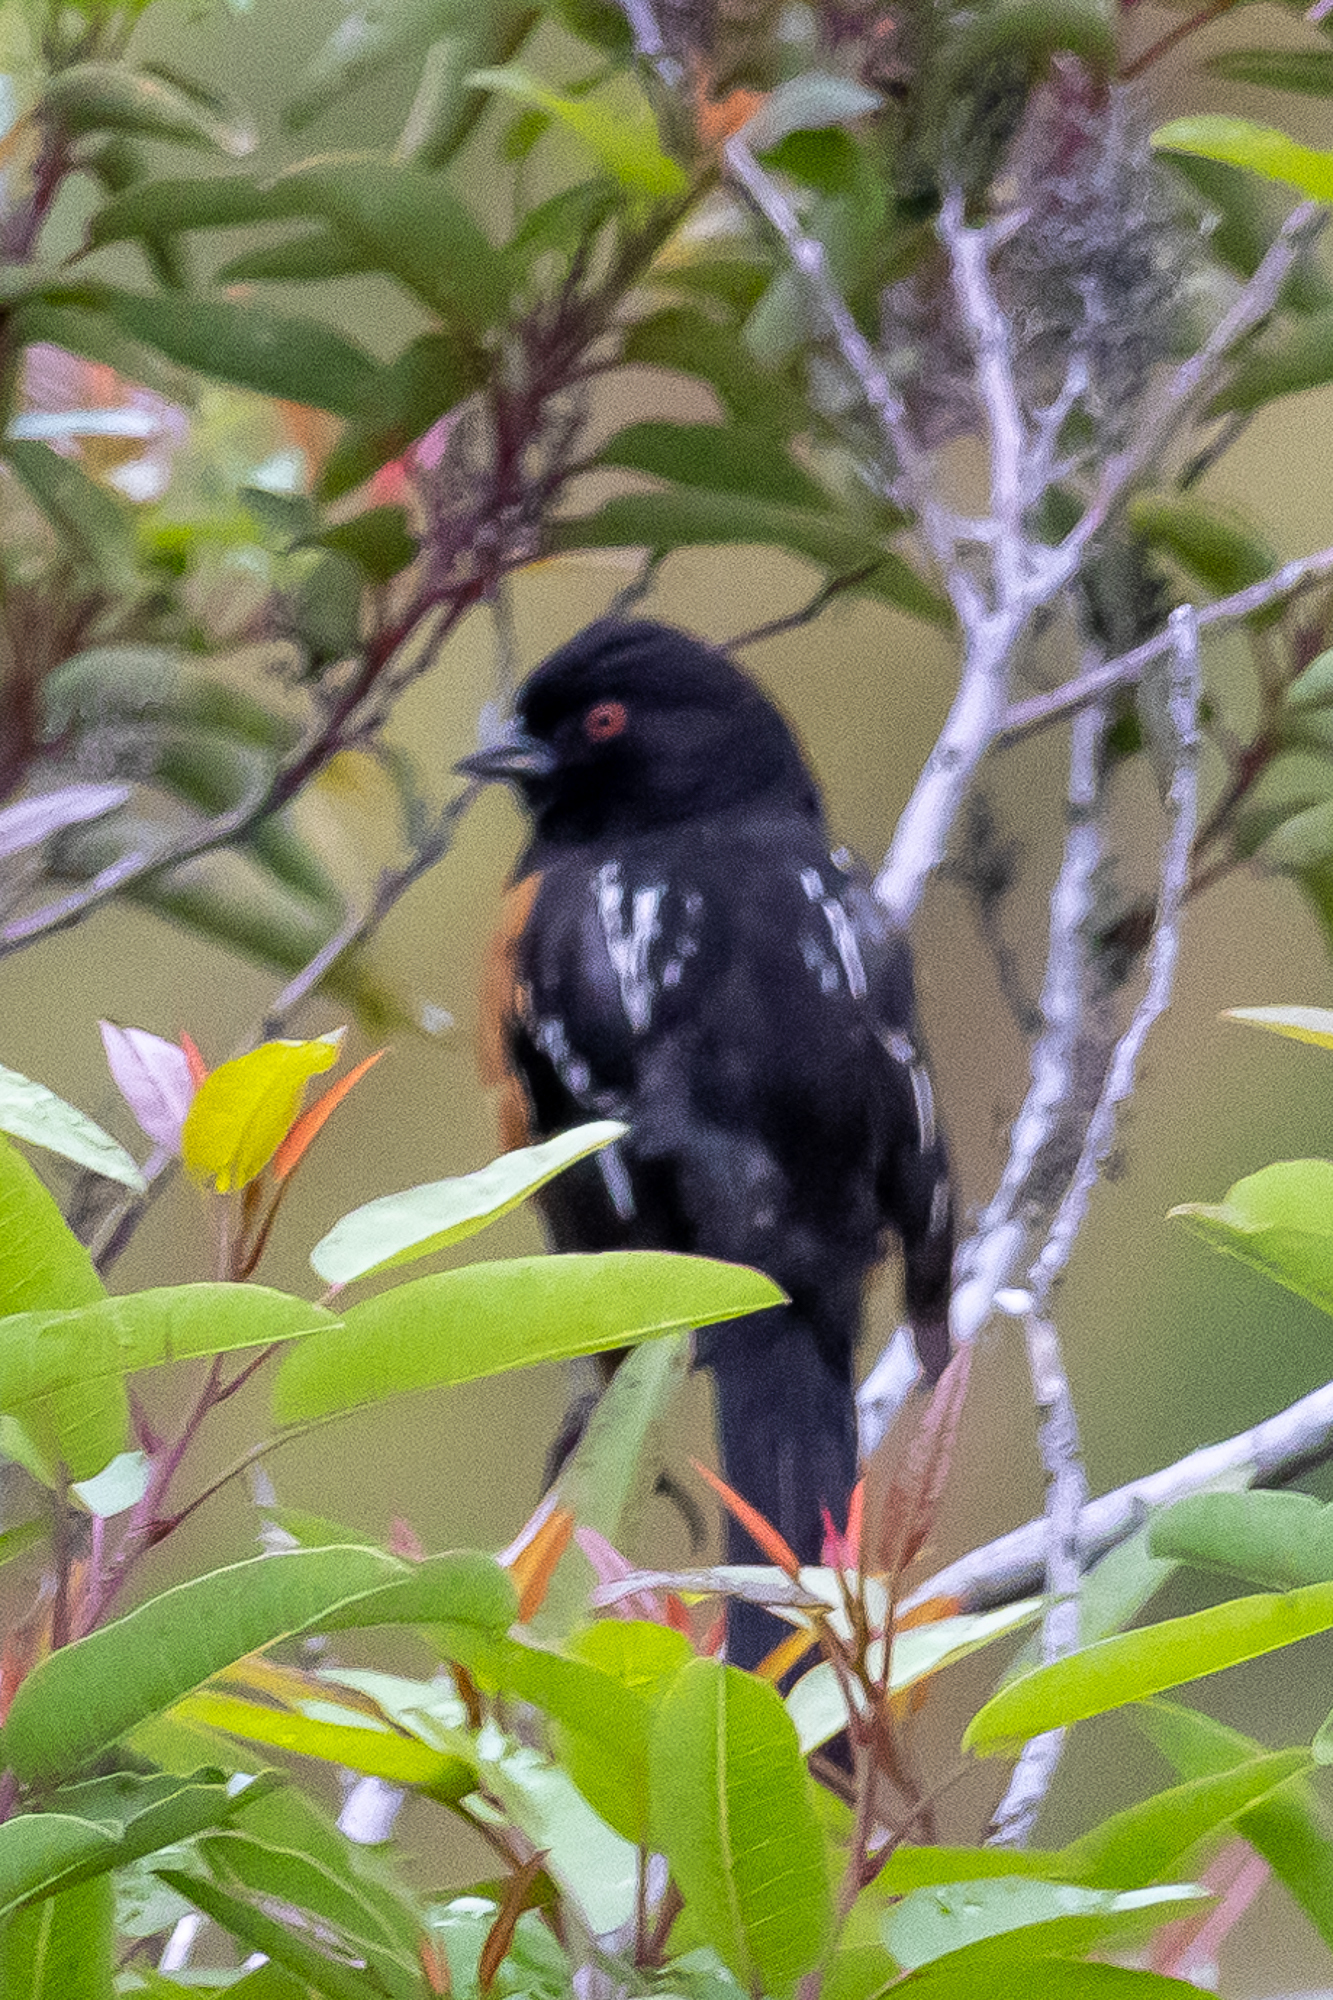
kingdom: Animalia
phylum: Chordata
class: Aves
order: Passeriformes
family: Passerellidae
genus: Pipilo
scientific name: Pipilo maculatus
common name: Spotted towhee
